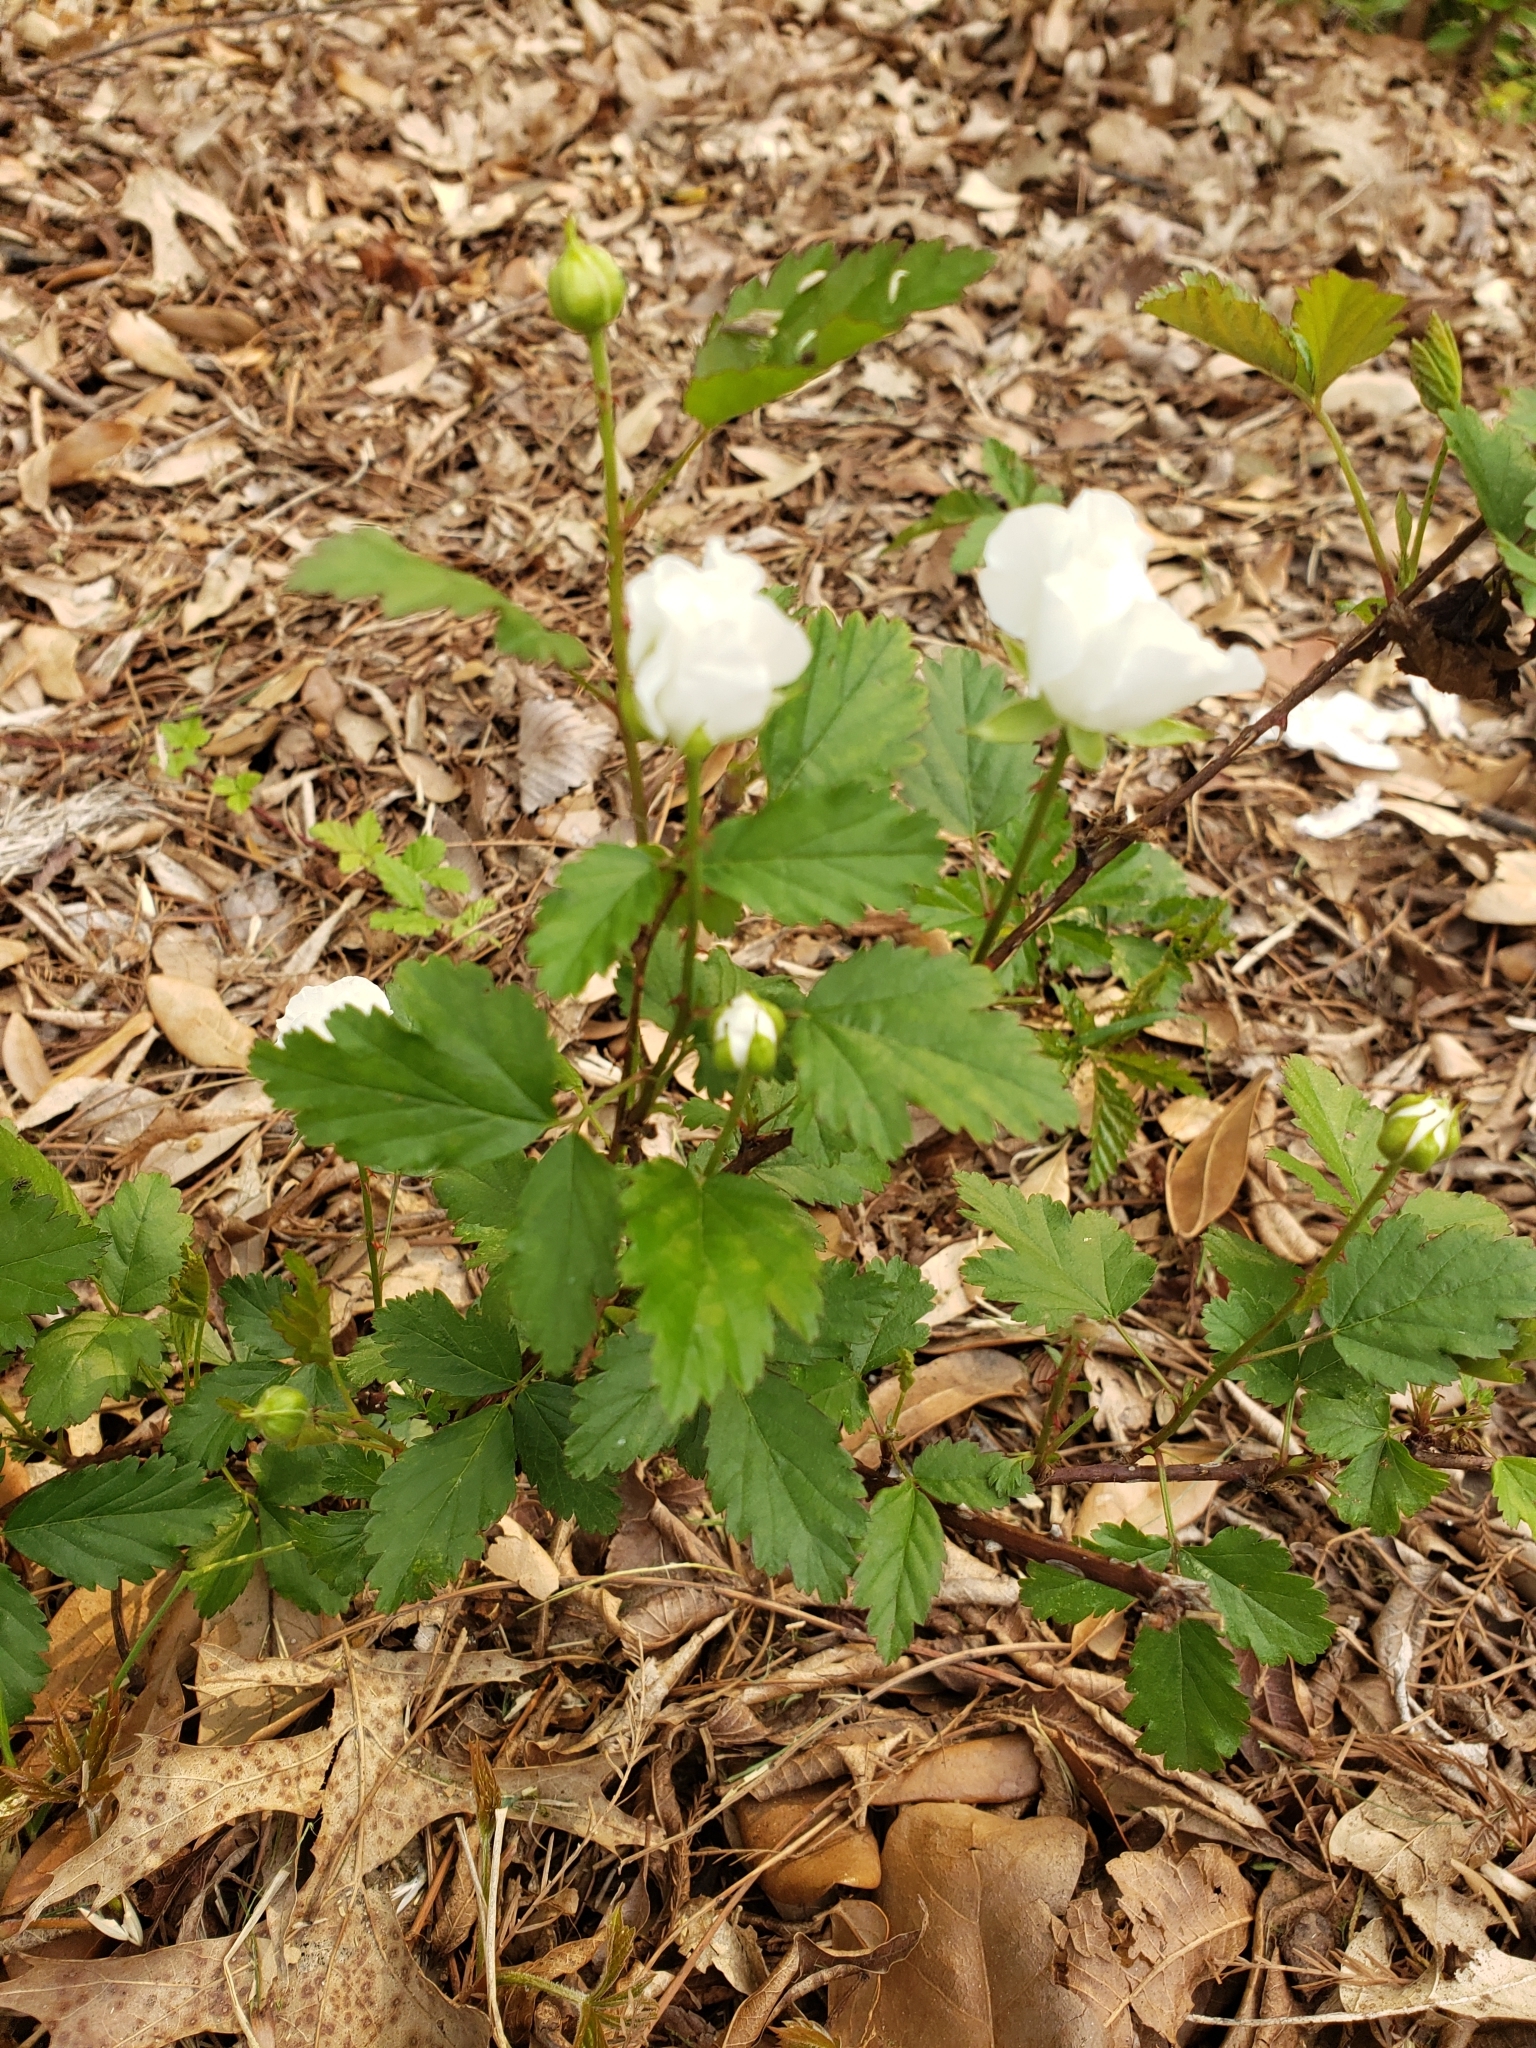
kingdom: Plantae
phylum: Tracheophyta
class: Magnoliopsida
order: Rosales
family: Rosaceae
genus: Rubus
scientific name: Rubus trivialis
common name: Southern dewberry
